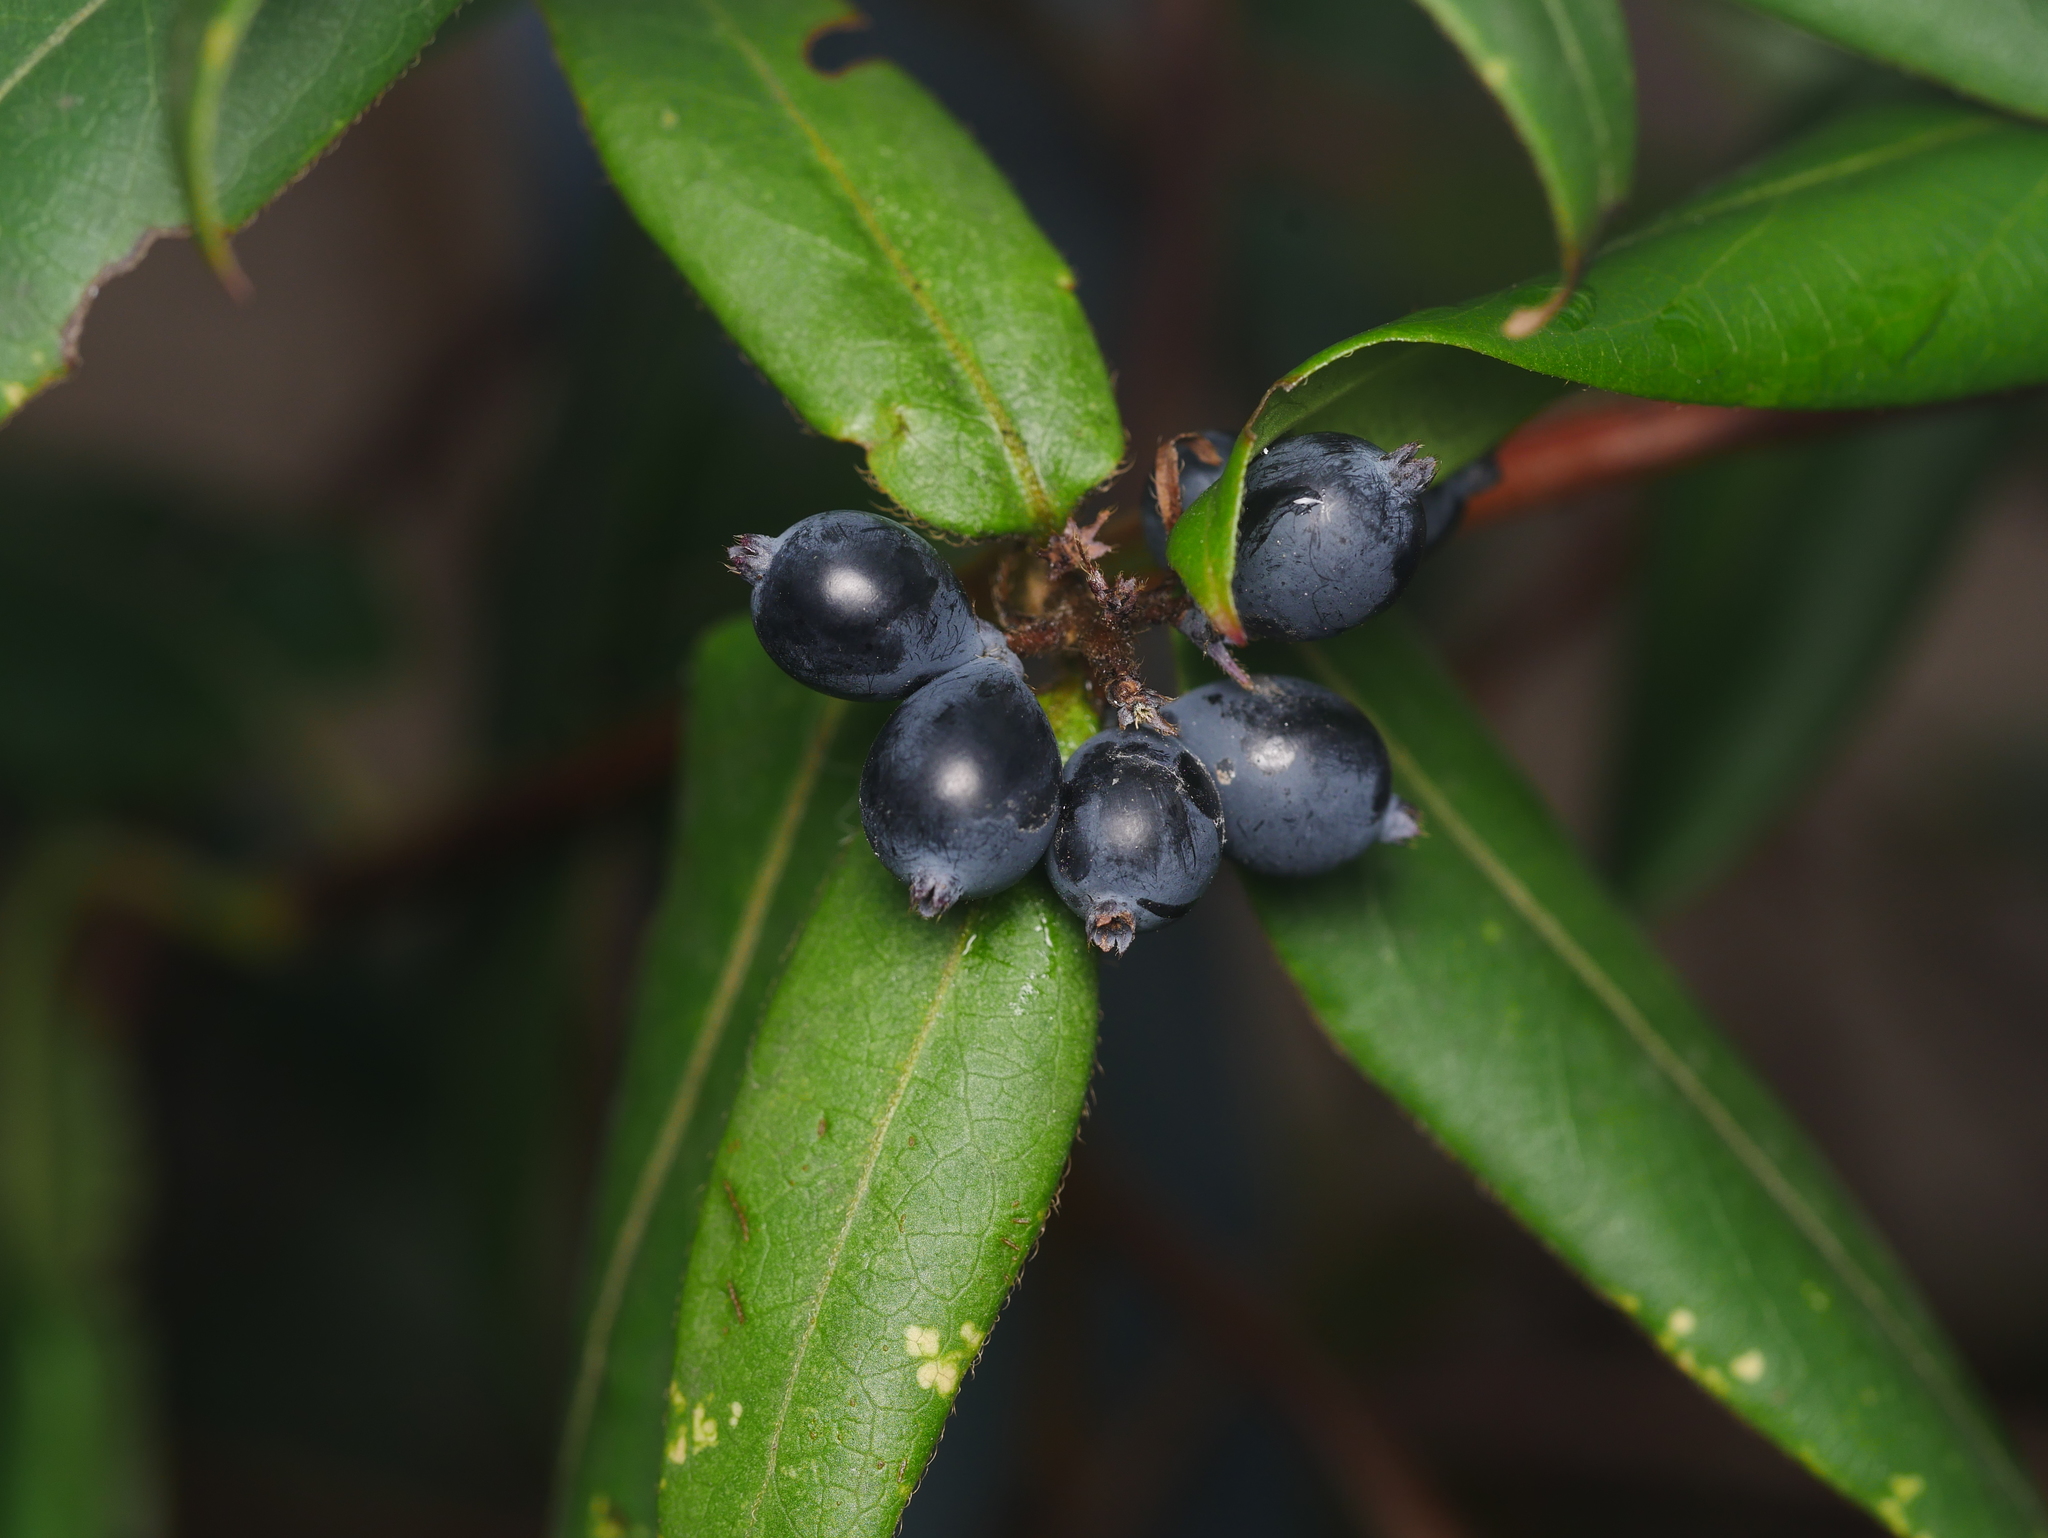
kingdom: Plantae
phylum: Tracheophyta
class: Magnoliopsida
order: Dipsacales
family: Caprifoliaceae
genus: Lonicera
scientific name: Lonicera acuminata
